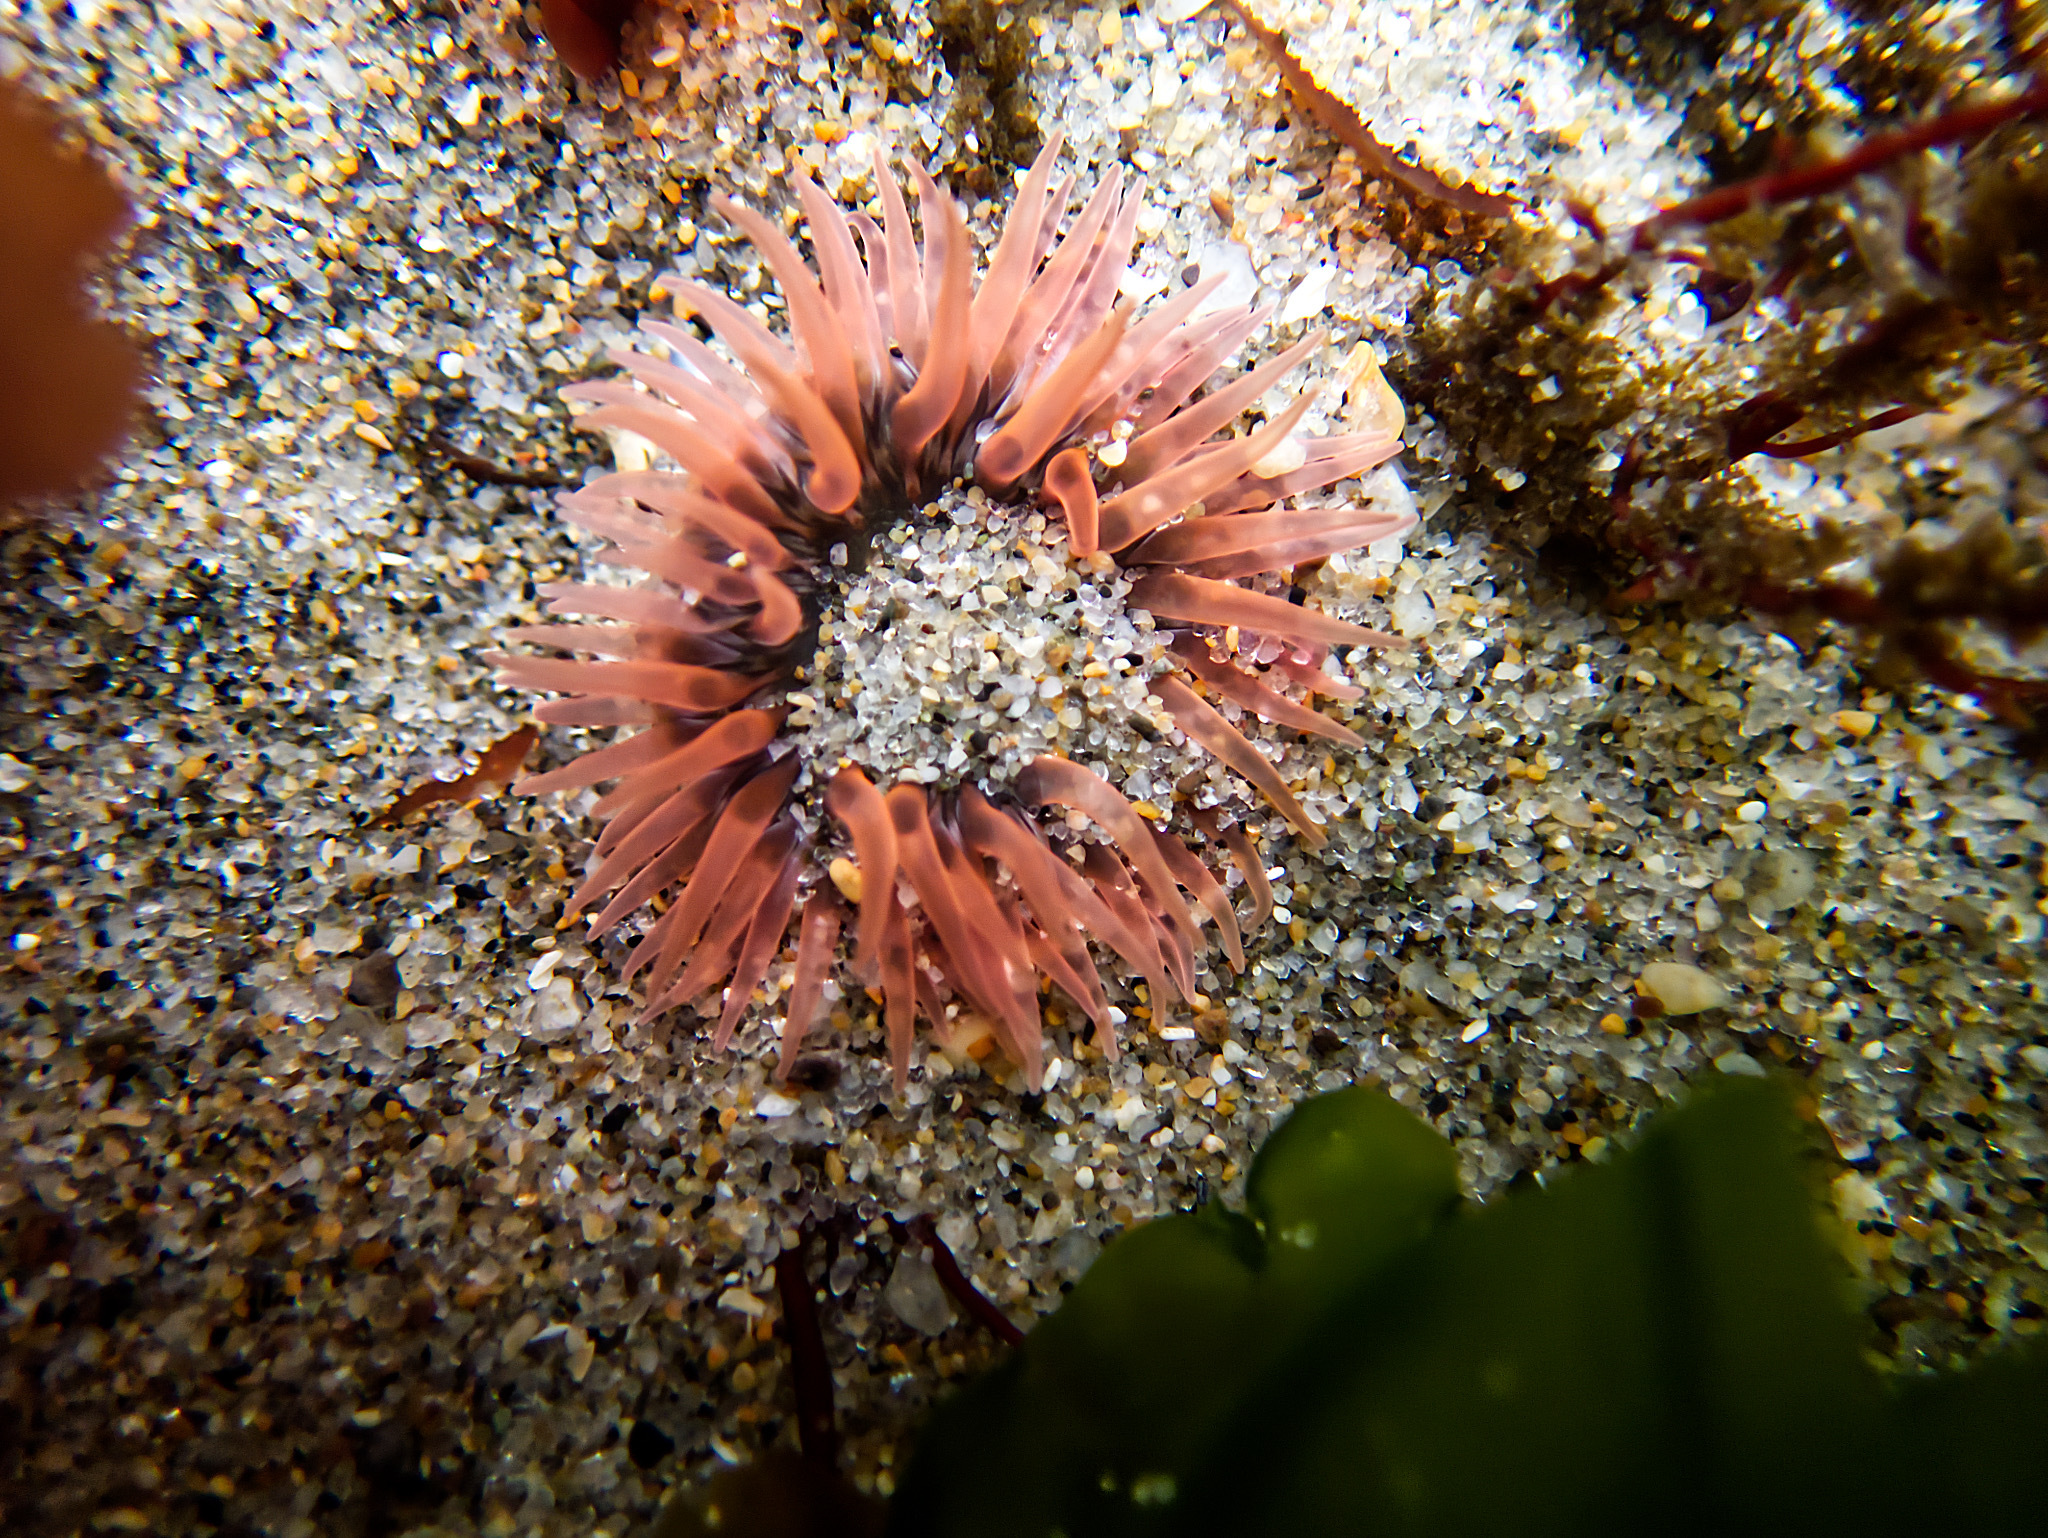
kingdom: Animalia
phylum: Cnidaria
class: Anthozoa
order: Actiniaria
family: Actiniidae
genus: Anthopleura
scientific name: Anthopleura artemisia
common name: Buried sea anemone
